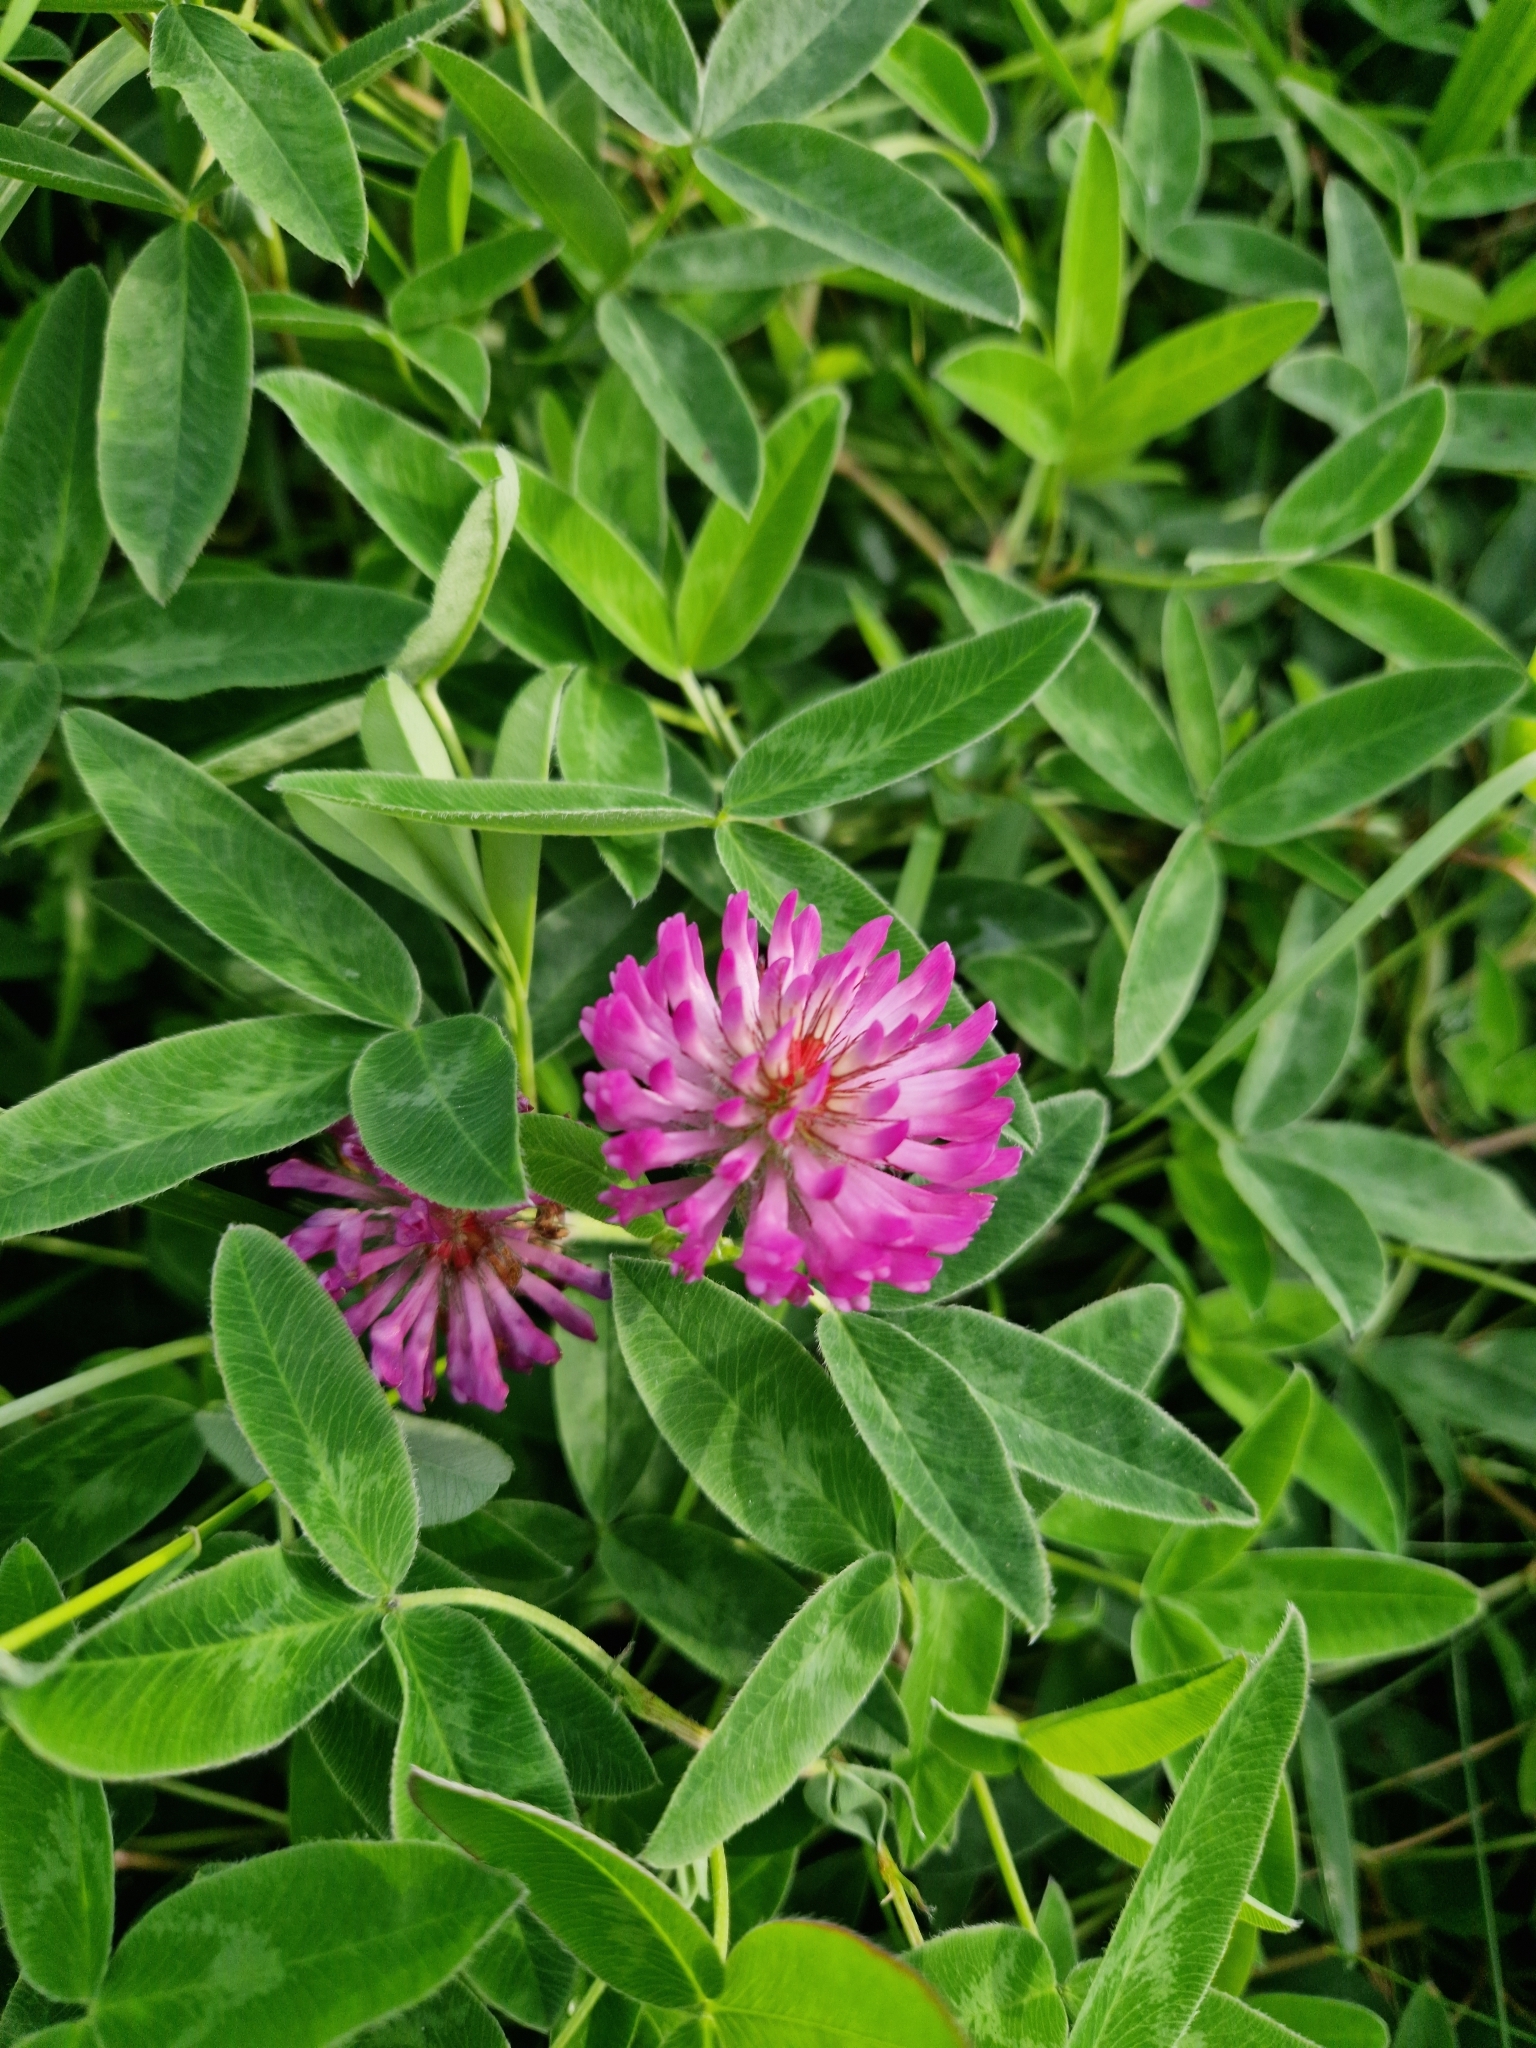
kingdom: Plantae
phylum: Tracheophyta
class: Magnoliopsida
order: Fabales
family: Fabaceae
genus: Trifolium
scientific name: Trifolium medium
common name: Zigzag clover
